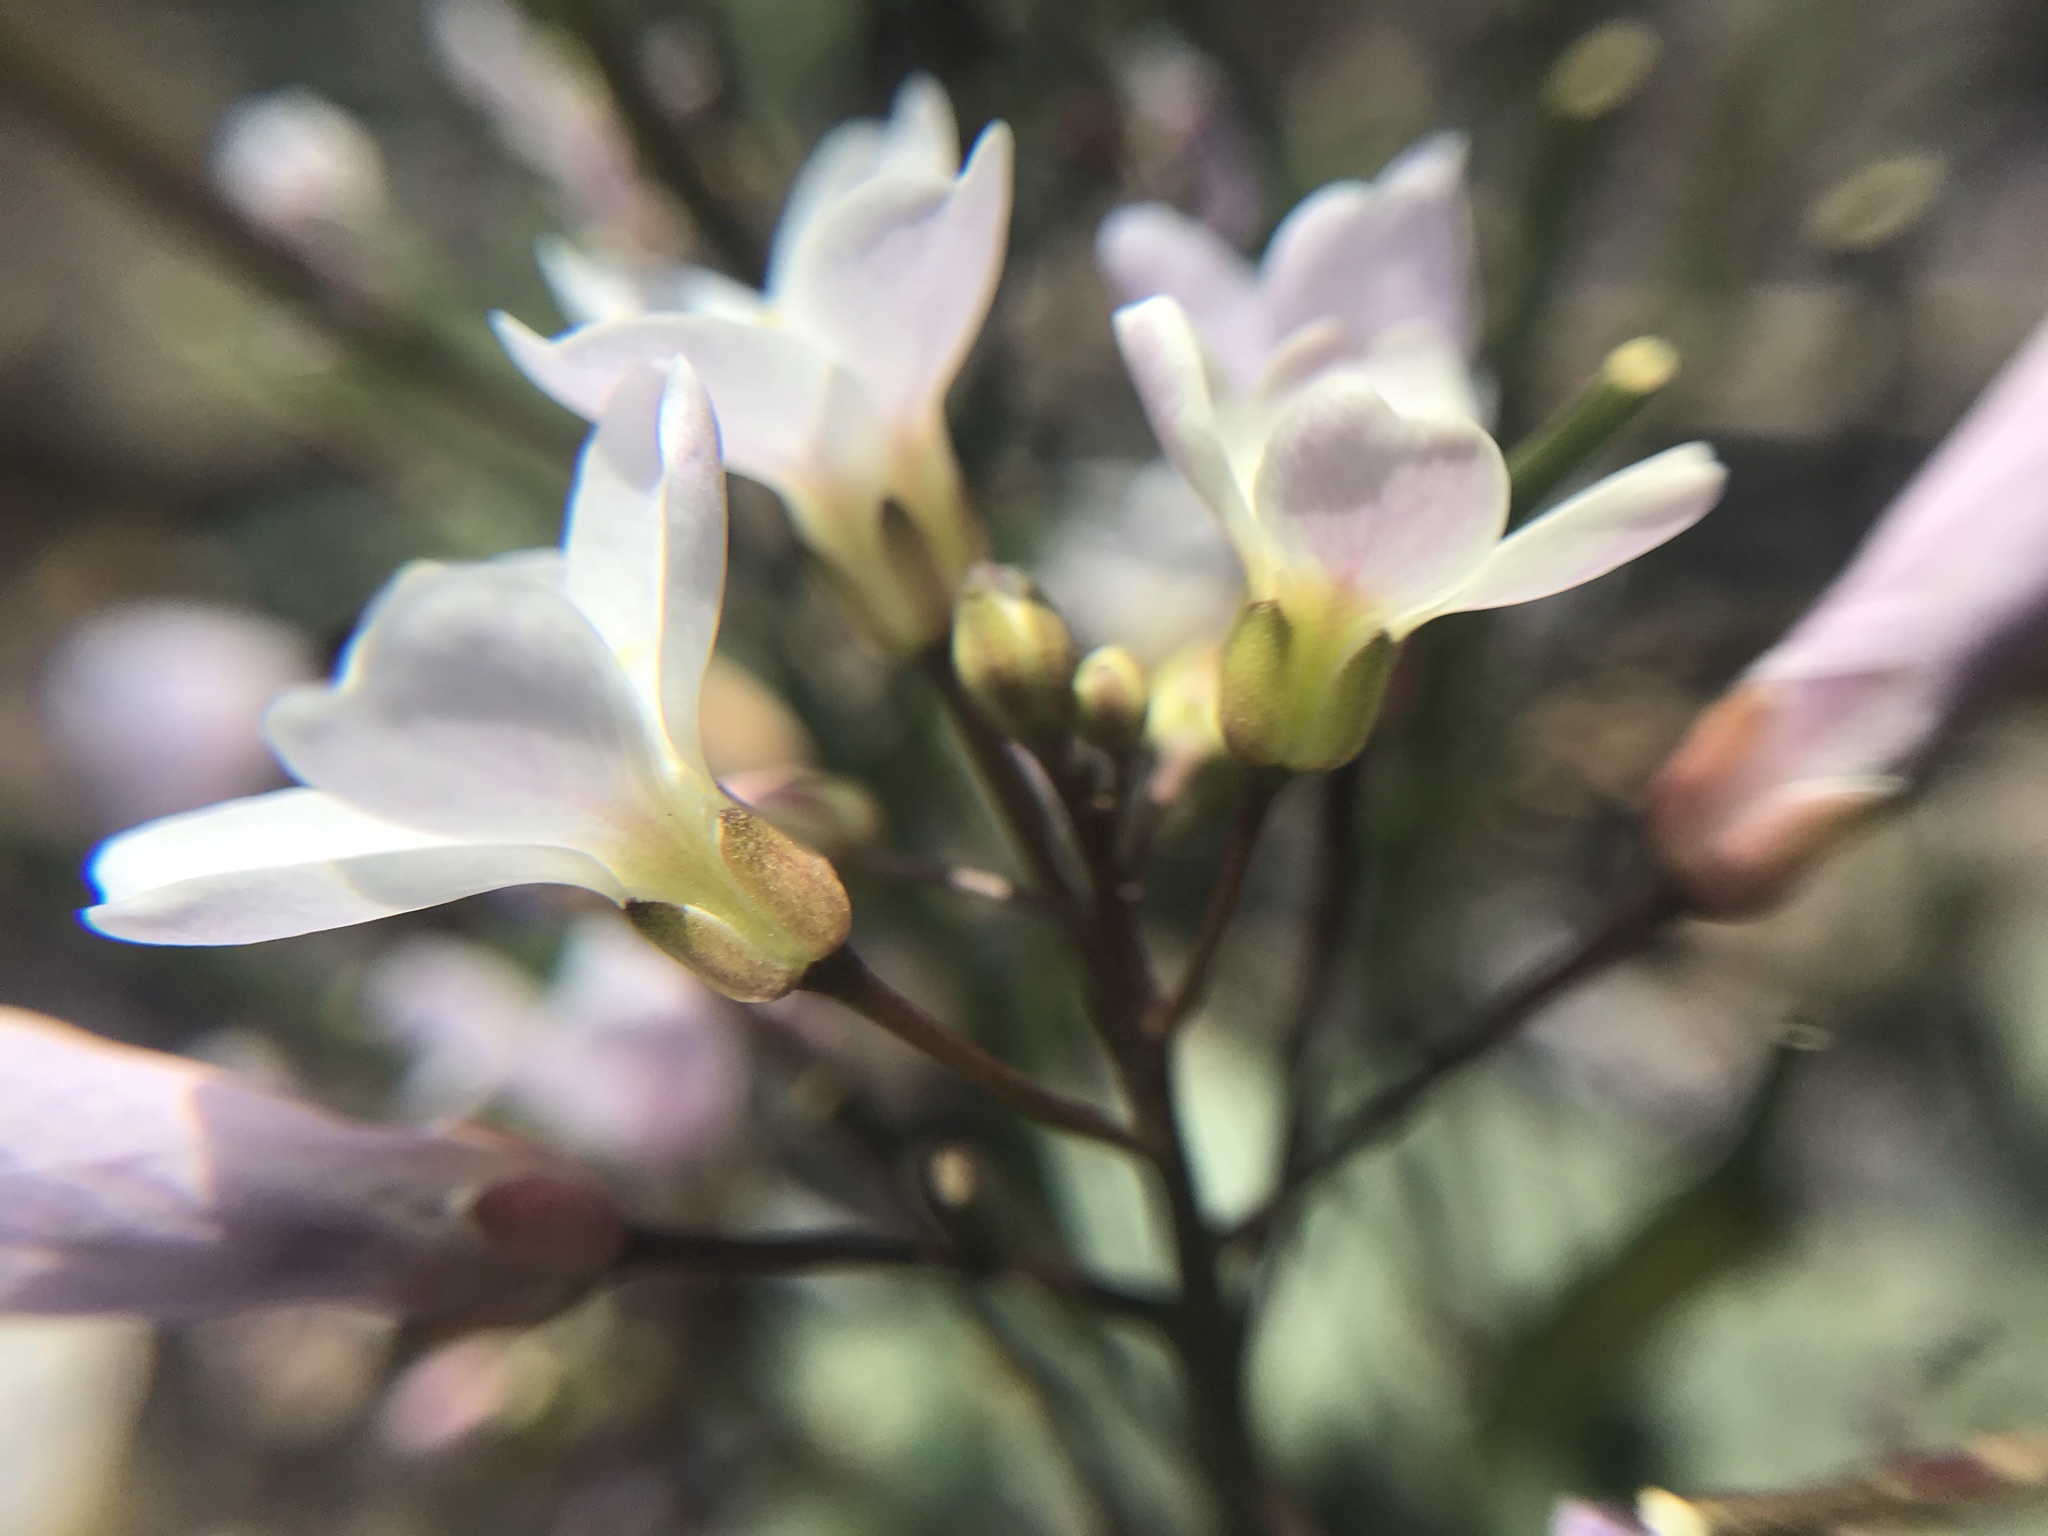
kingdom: Plantae
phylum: Tracheophyta
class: Magnoliopsida
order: Brassicales
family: Brassicaceae
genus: Cardamine
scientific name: Cardamine californica
